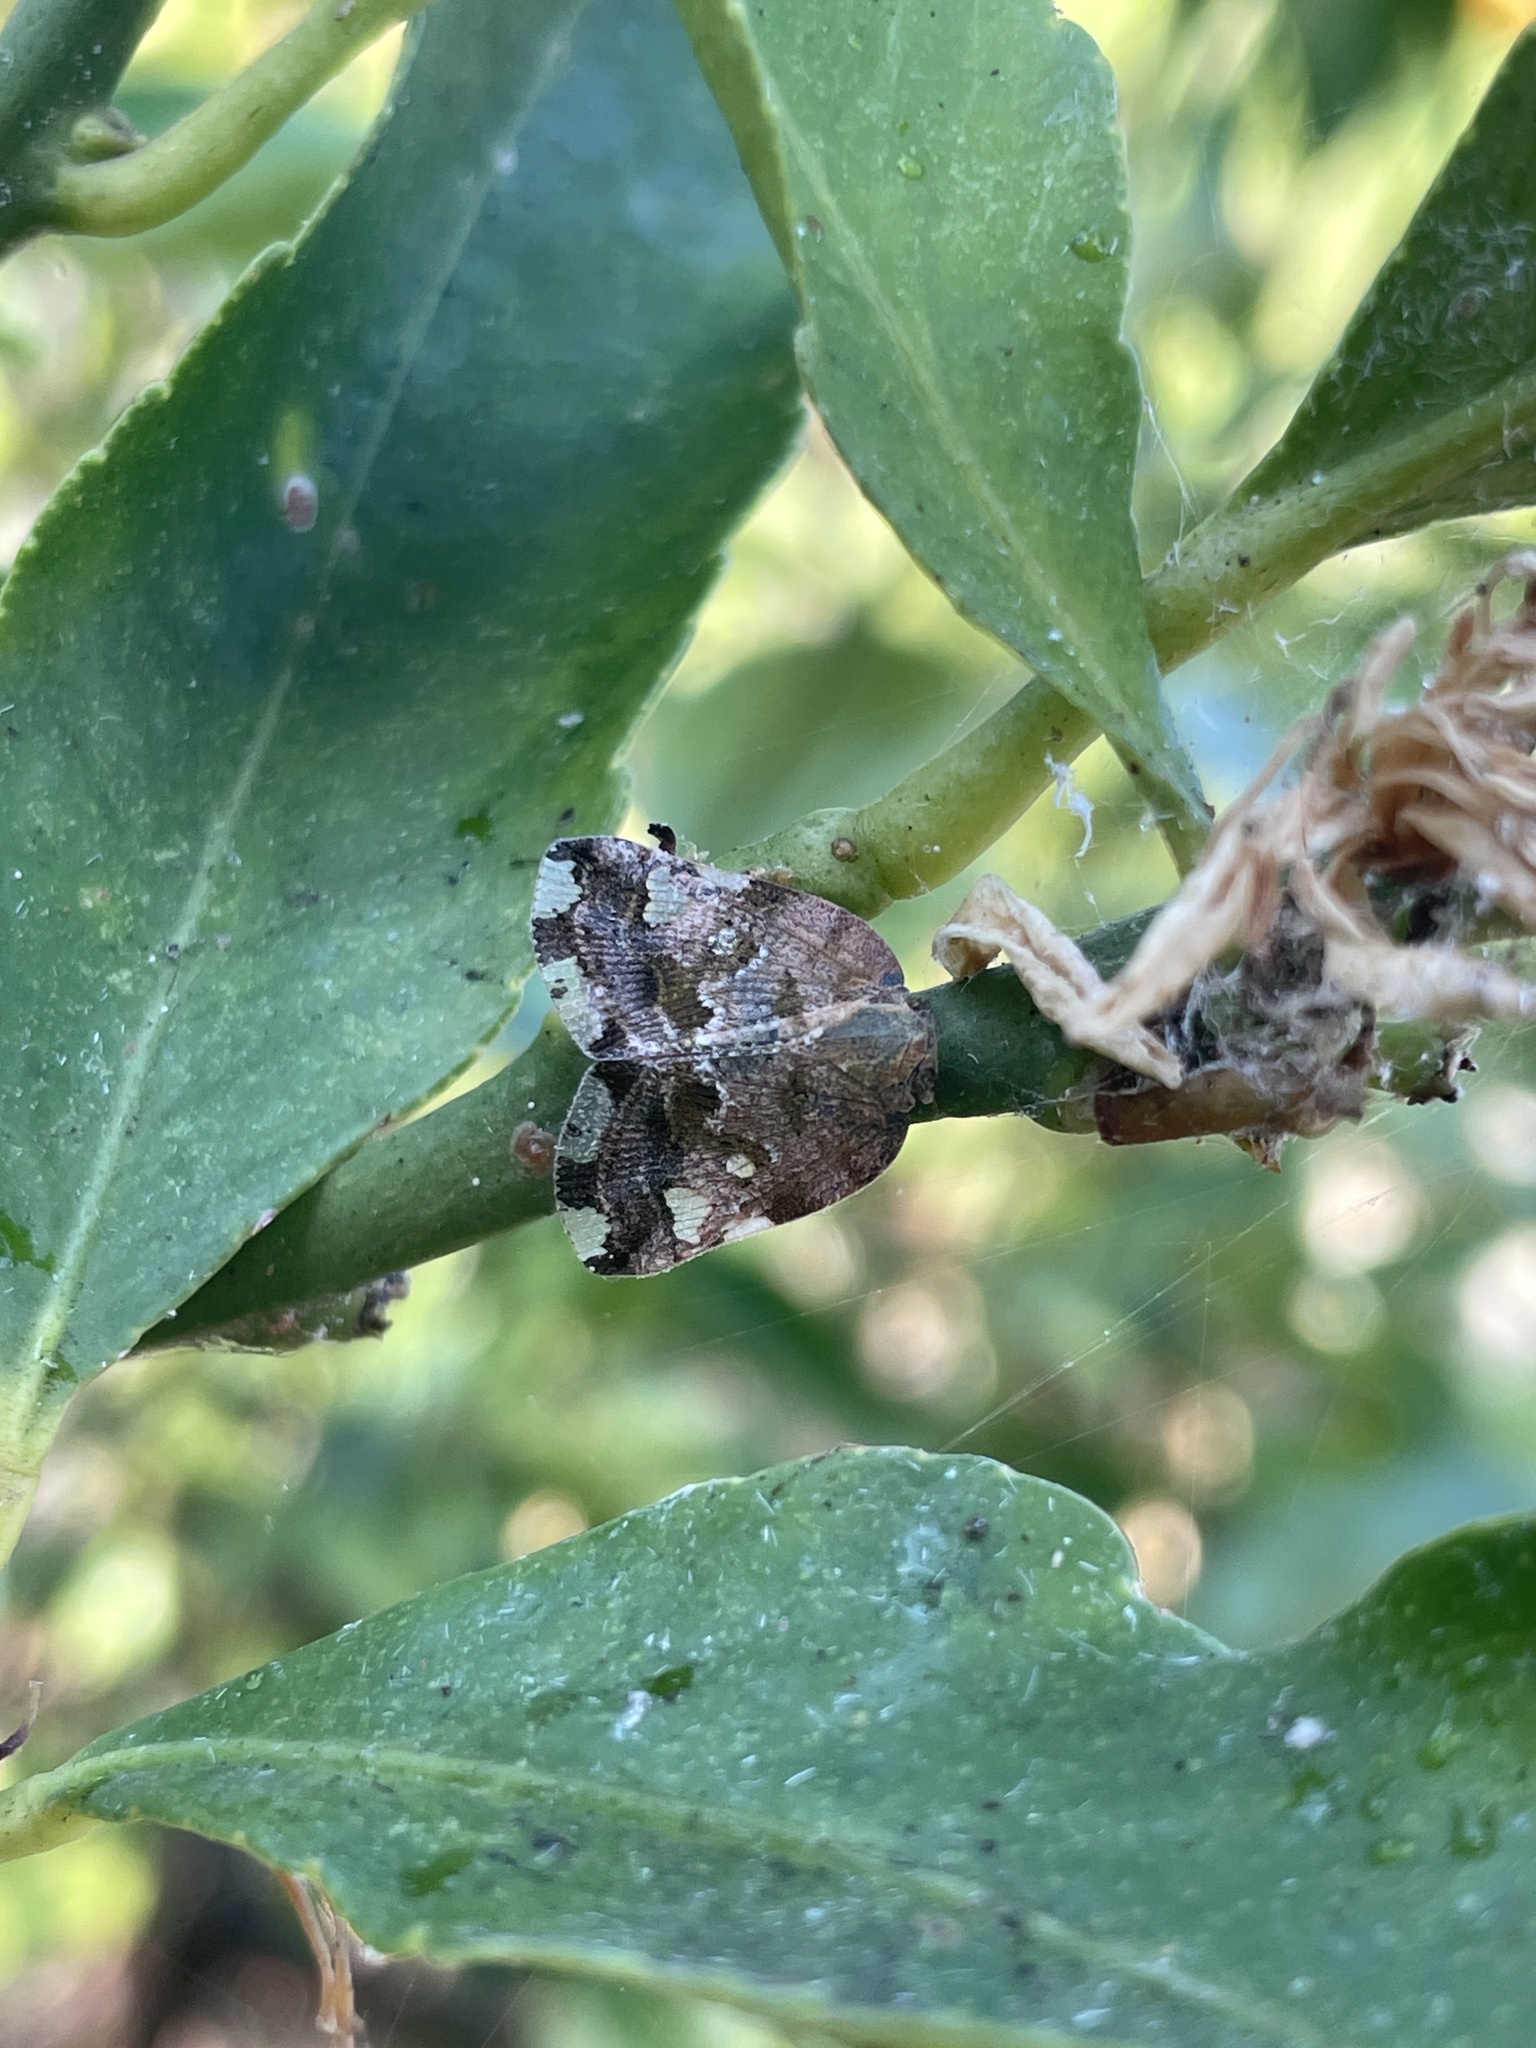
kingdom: Animalia
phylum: Arthropoda
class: Insecta
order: Hemiptera
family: Ricaniidae
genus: Ricania
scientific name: Ricania speculum
